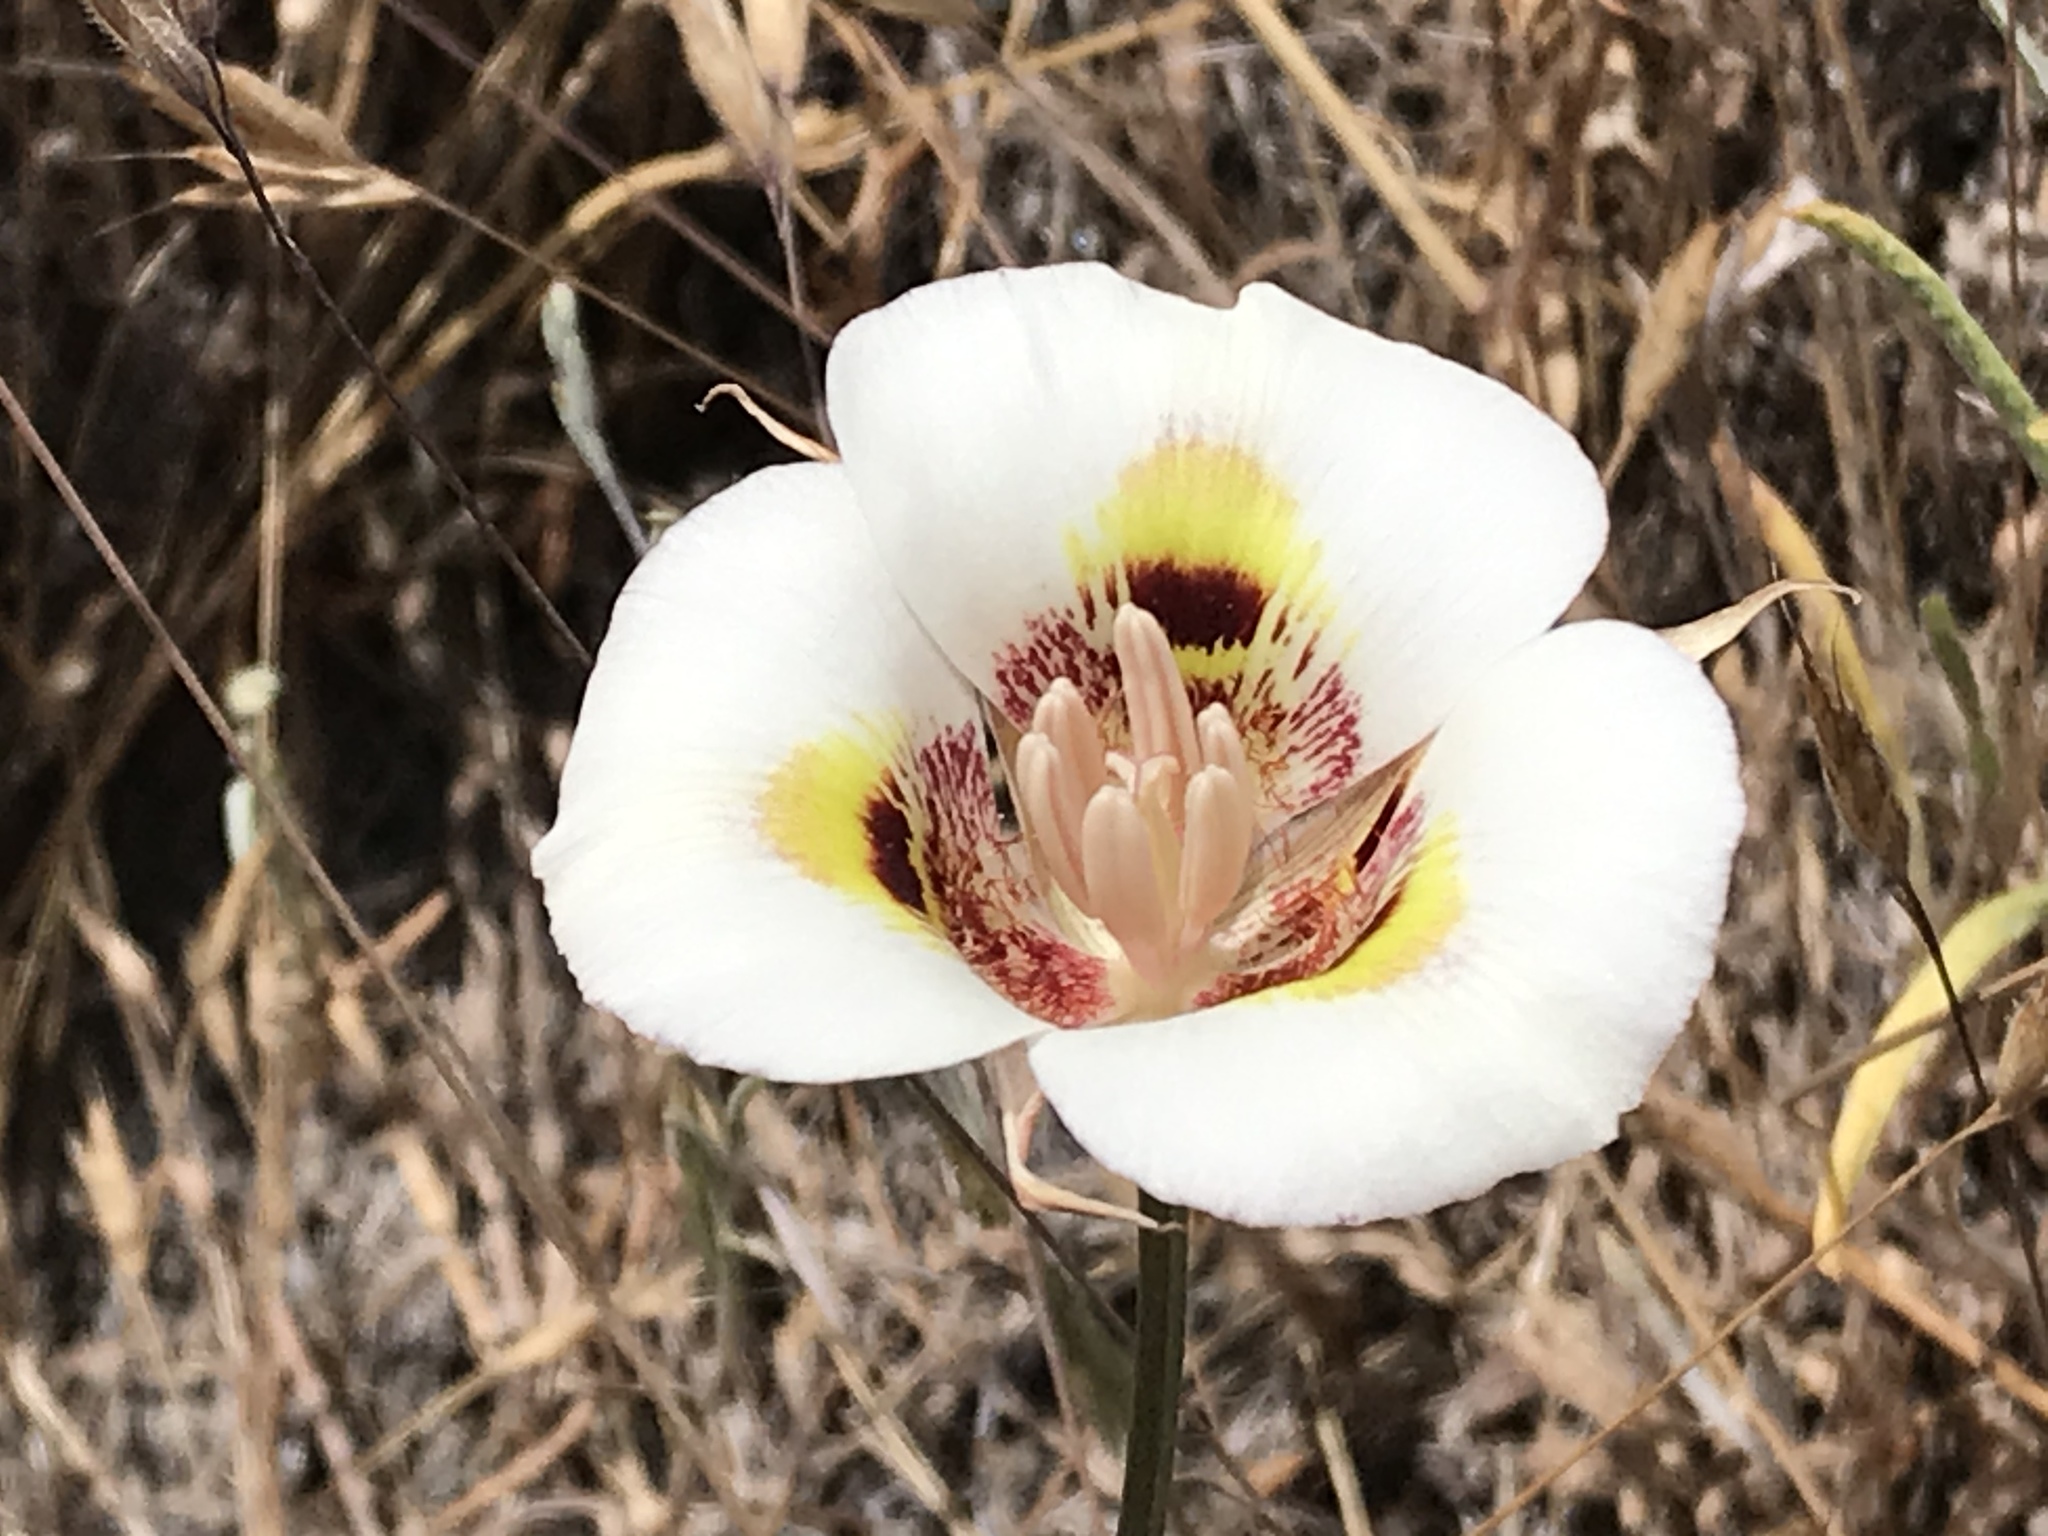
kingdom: Plantae
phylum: Tracheophyta
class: Liliopsida
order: Liliales
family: Liliaceae
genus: Calochortus
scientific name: Calochortus argillosus
